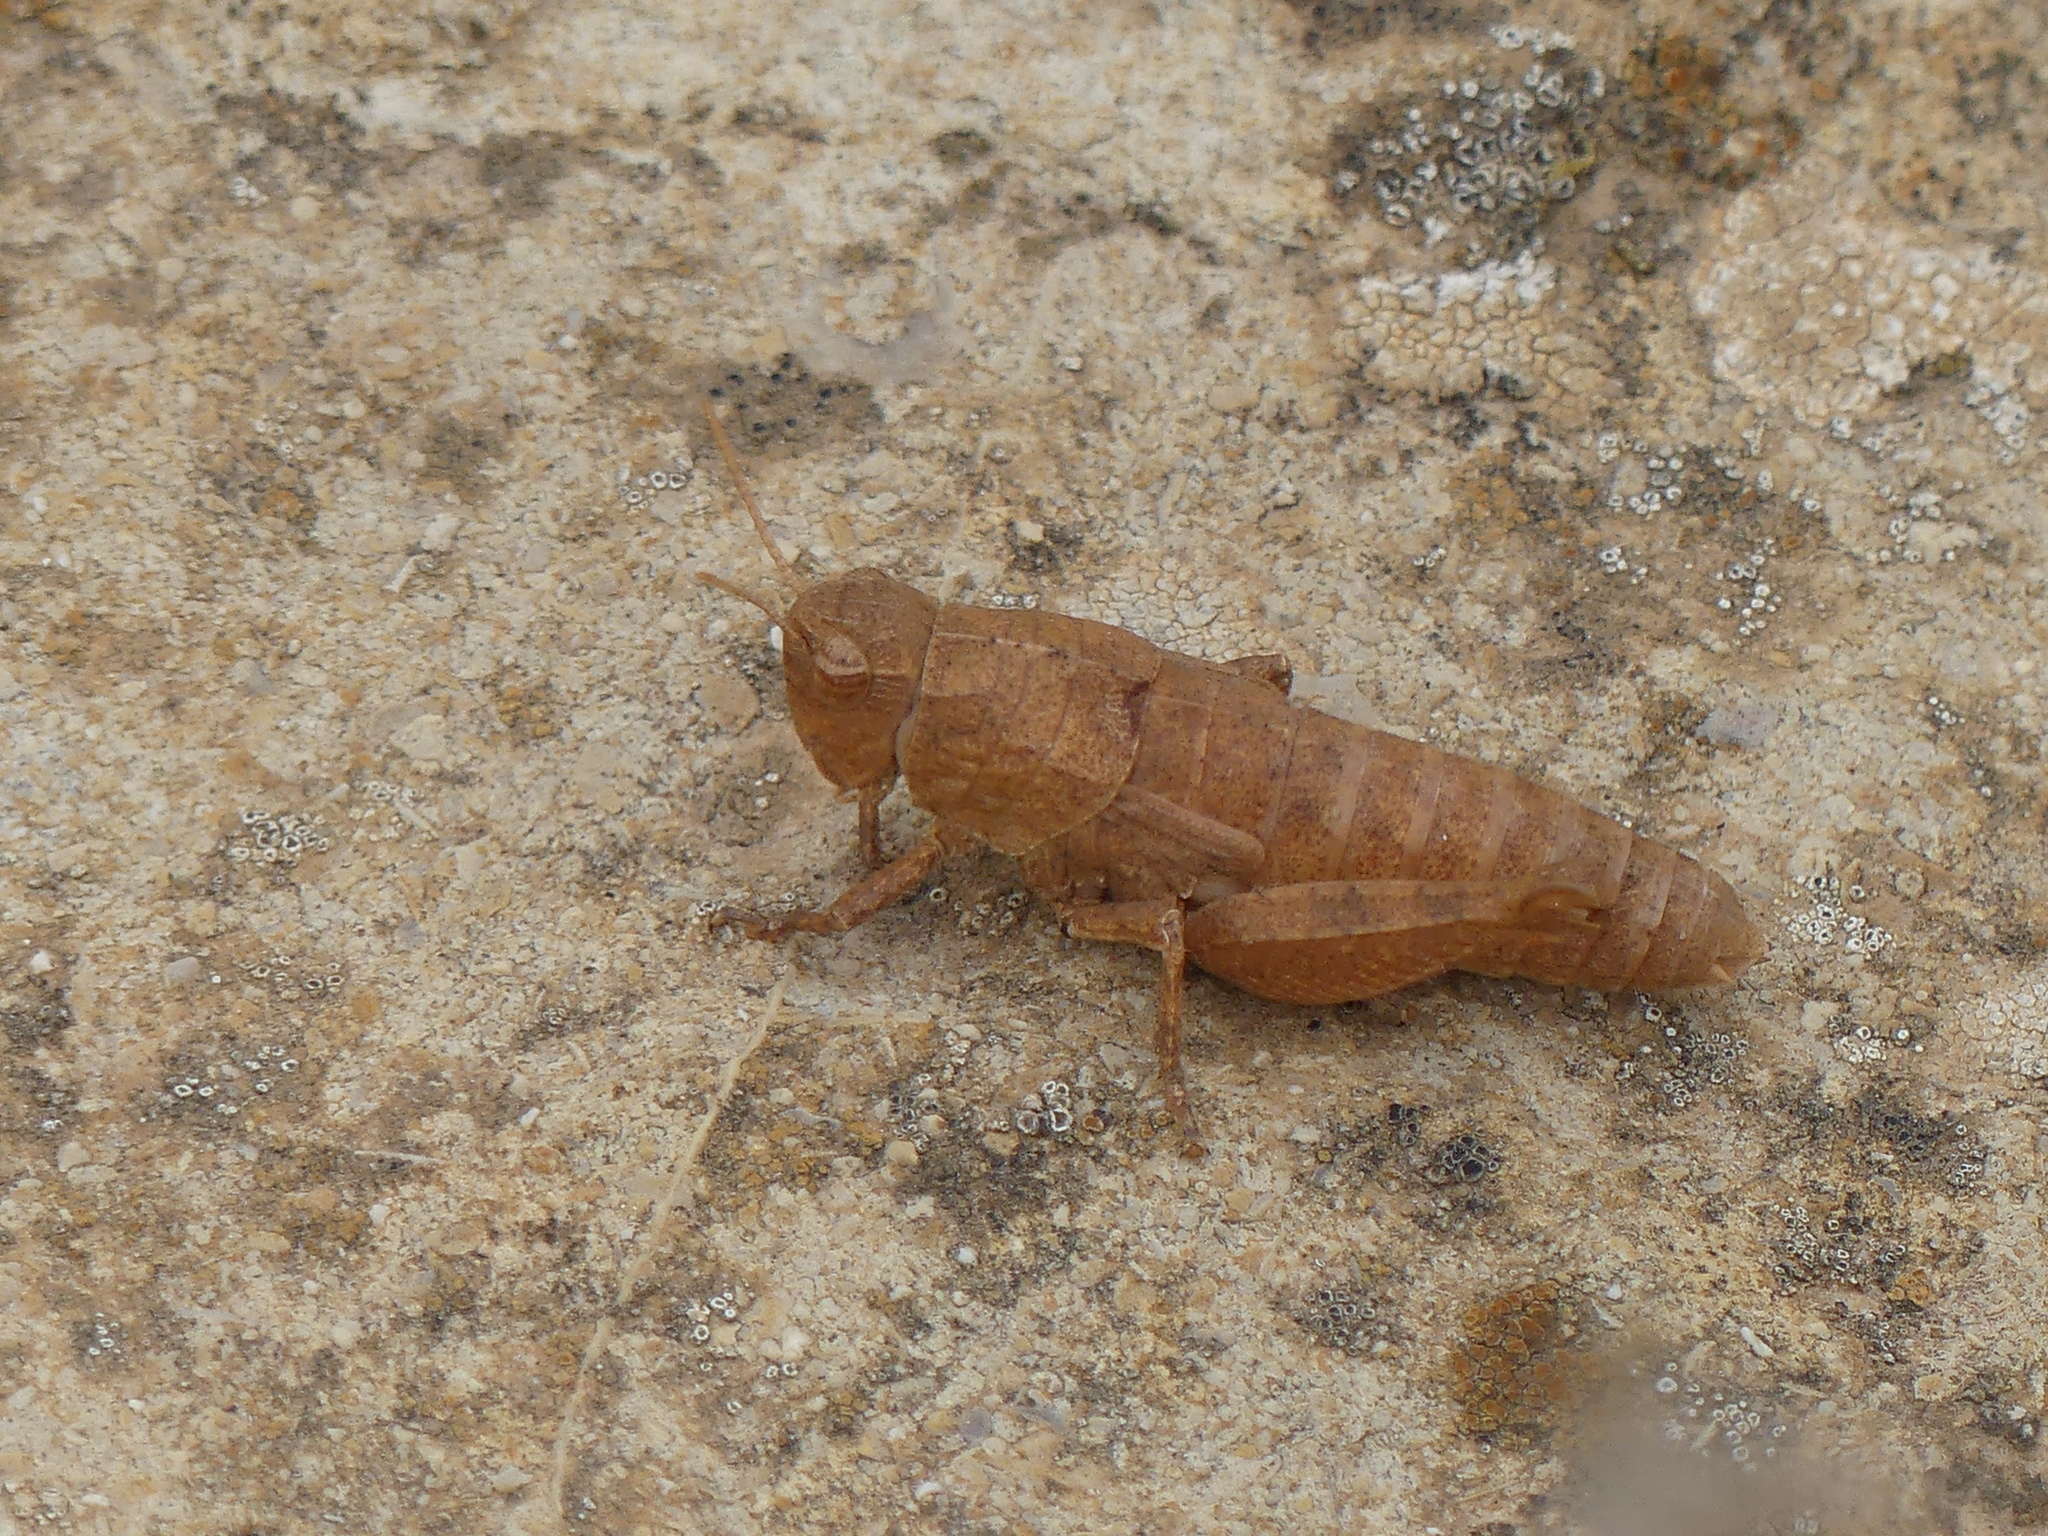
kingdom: Animalia
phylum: Arthropoda
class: Insecta
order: Orthoptera
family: Acrididae
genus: Sphenophyma
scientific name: Sphenophyma rugulosa
